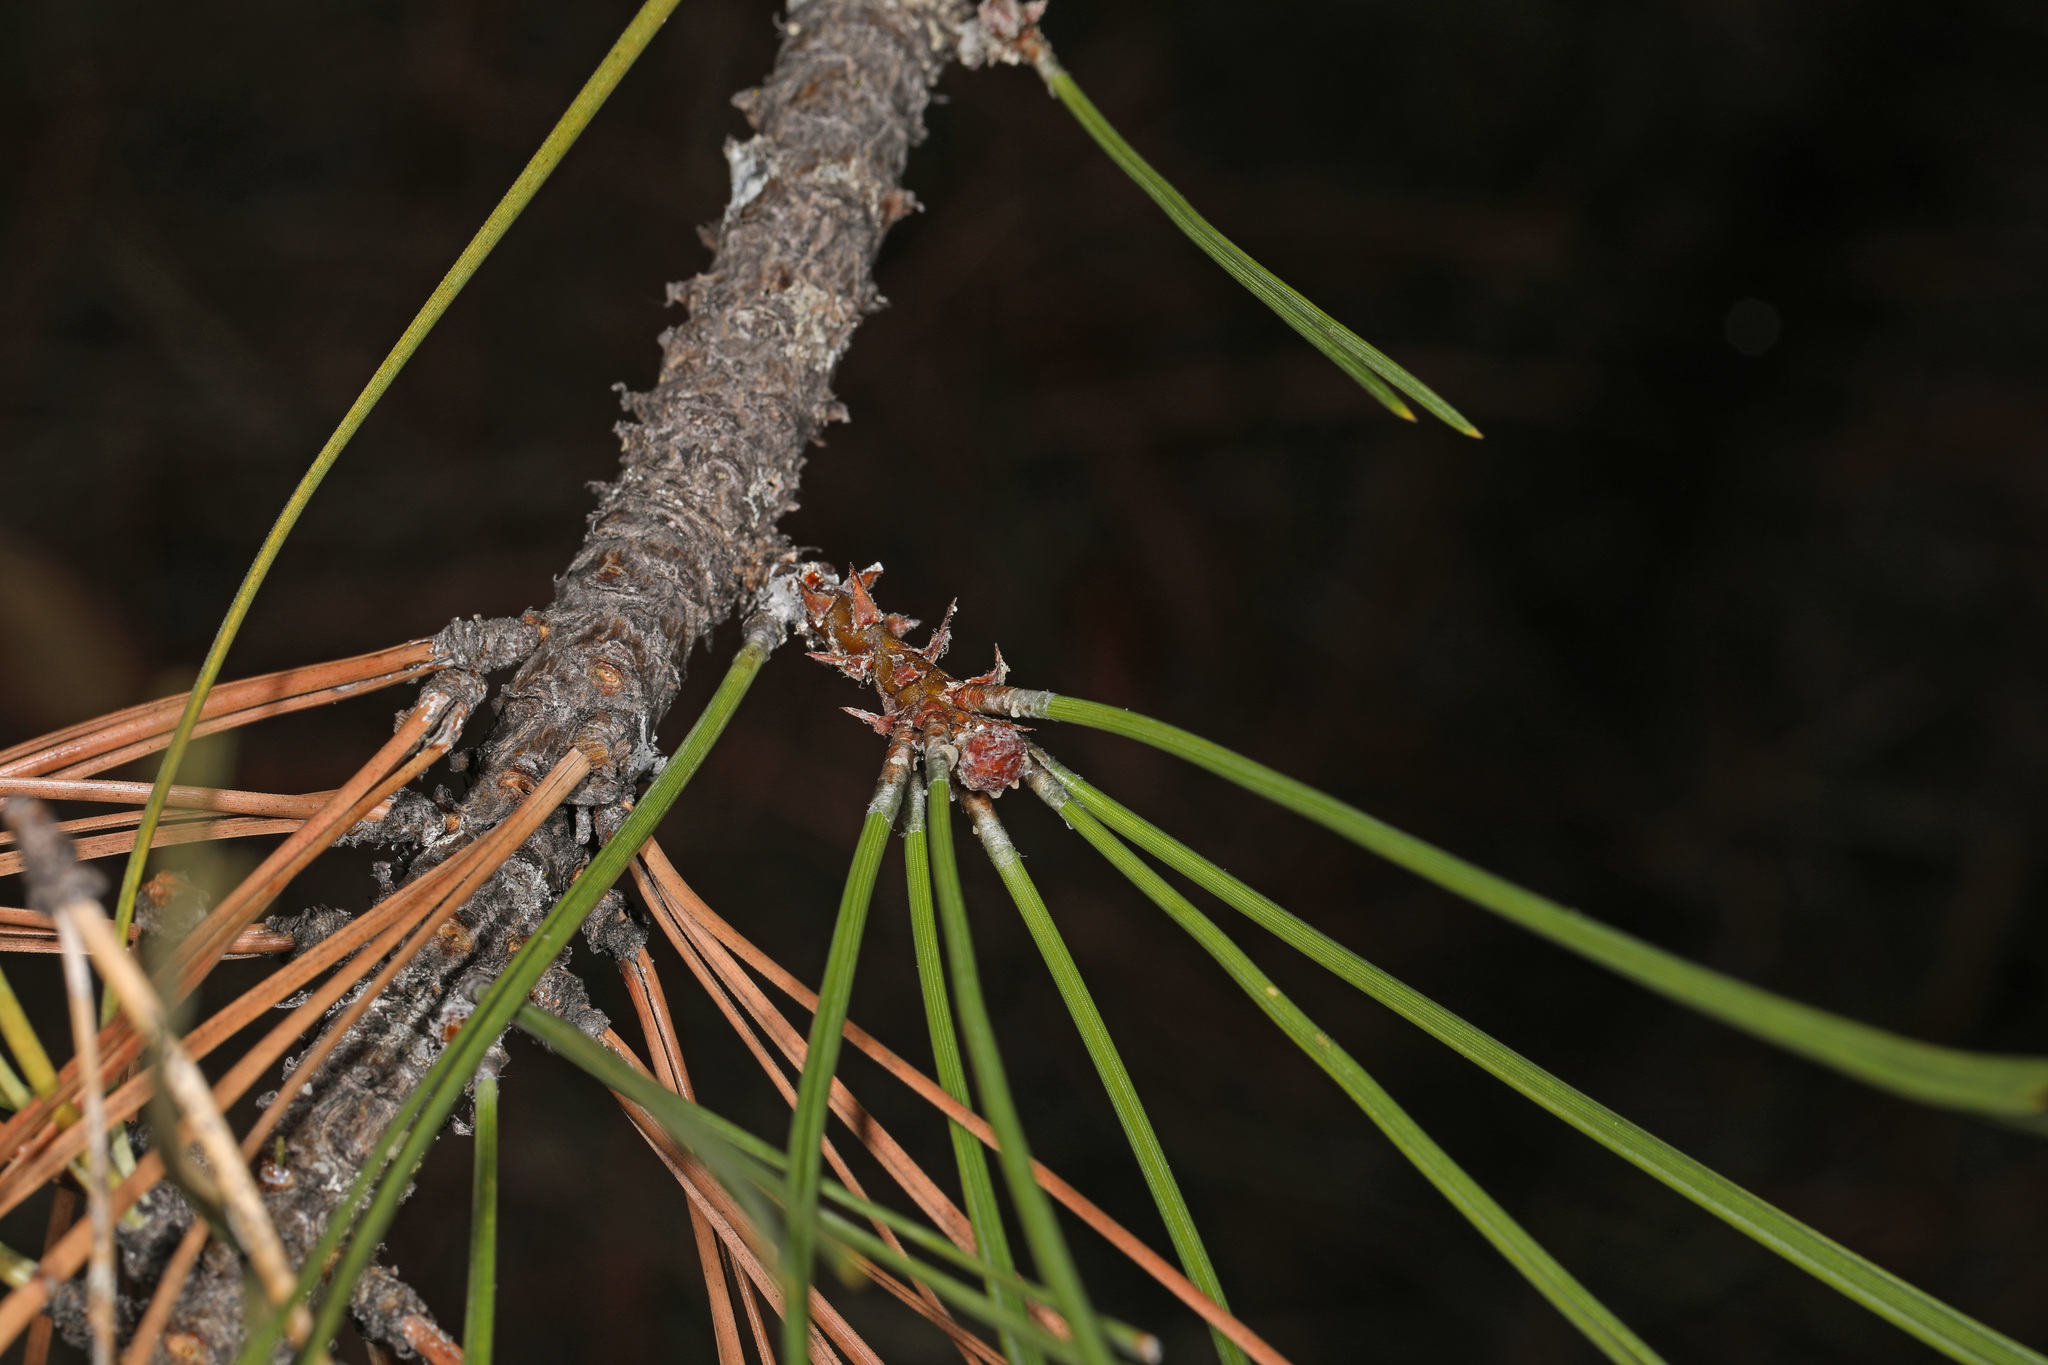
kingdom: Plantae
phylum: Tracheophyta
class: Pinopsida
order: Pinales
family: Pinaceae
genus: Pinus
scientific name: Pinus ponderosa
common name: Western yellow-pine
